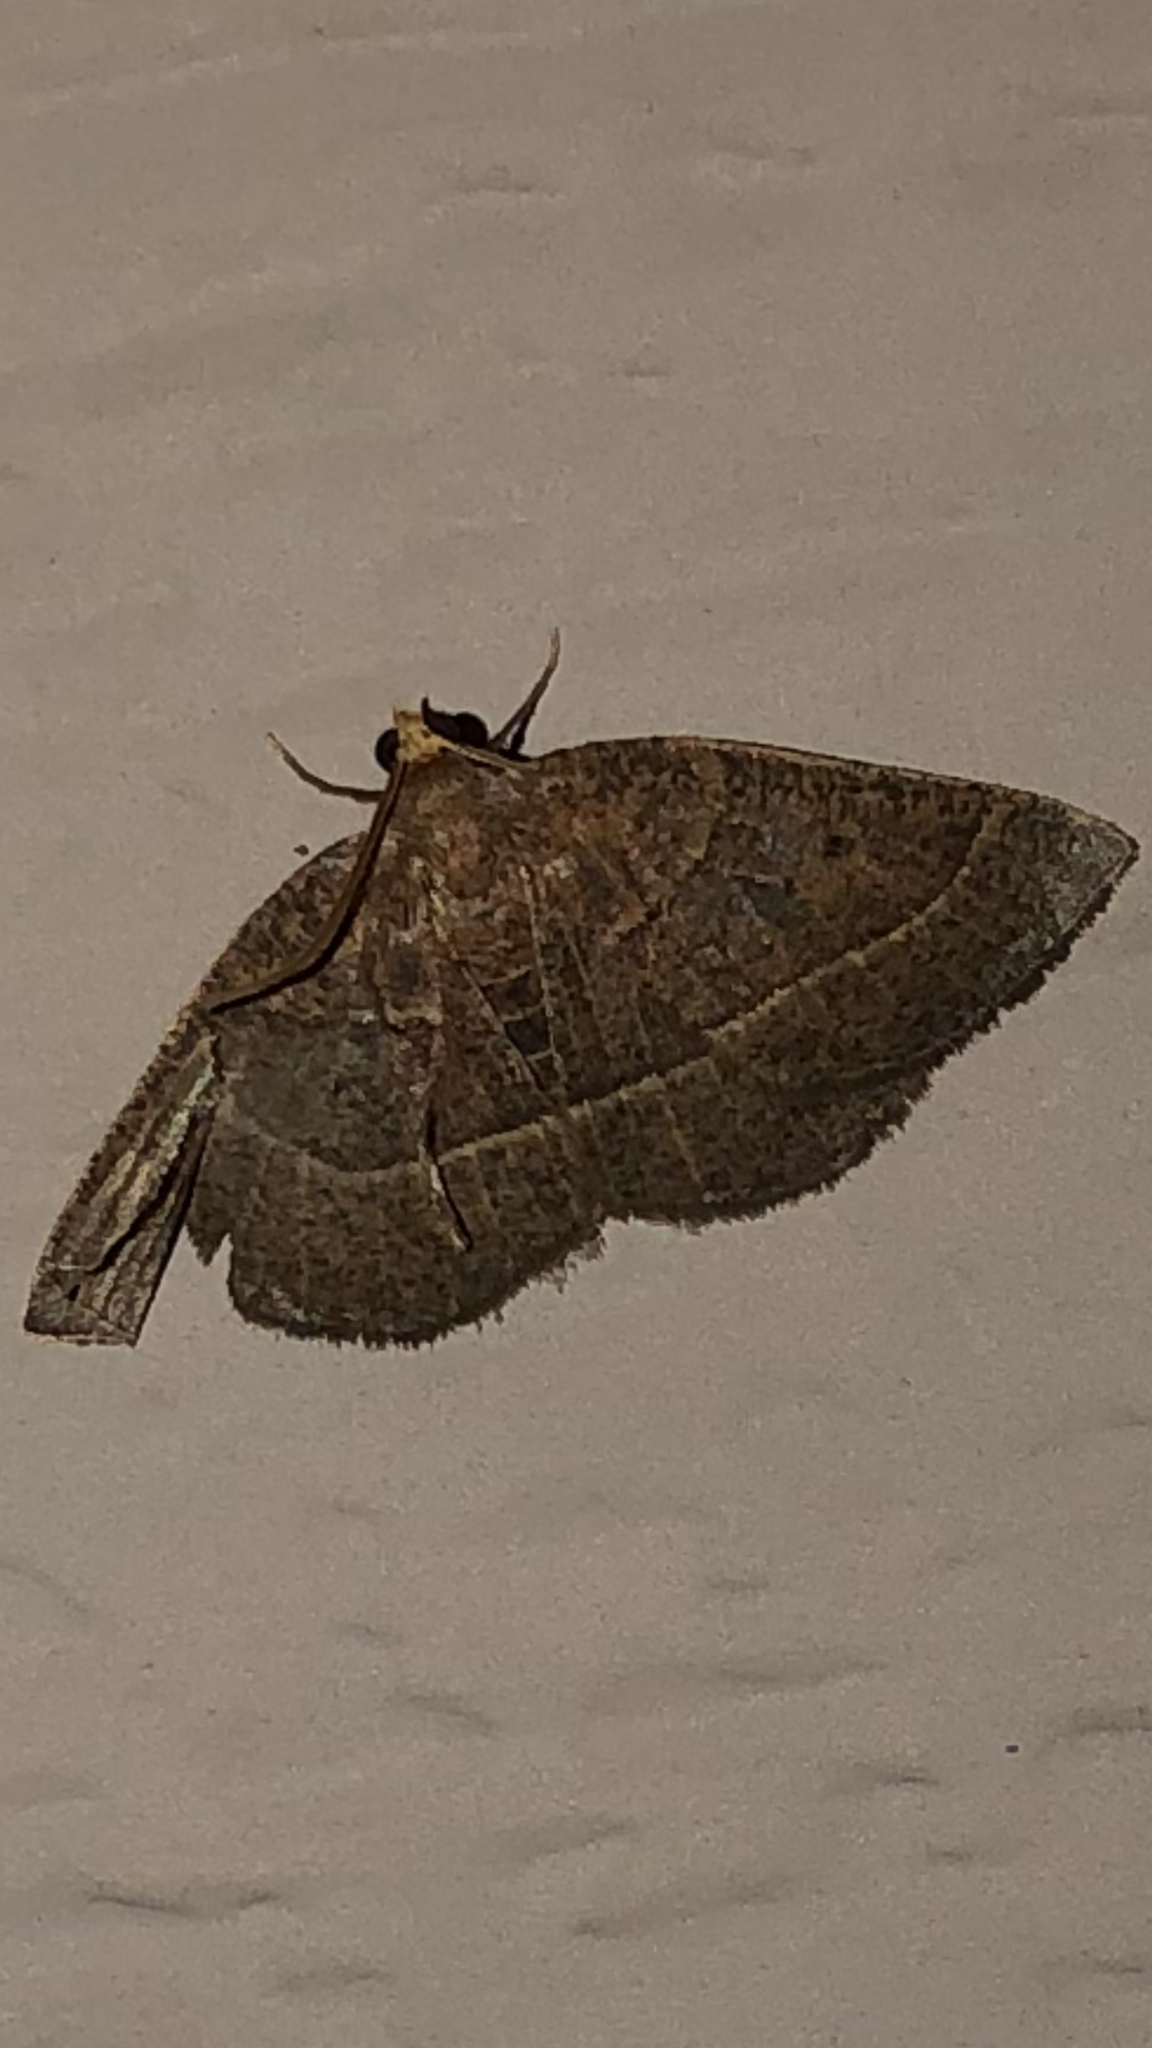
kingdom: Animalia
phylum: Arthropoda
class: Insecta
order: Lepidoptera
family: Geometridae
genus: Episemasia
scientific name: Episemasia cervinaria
